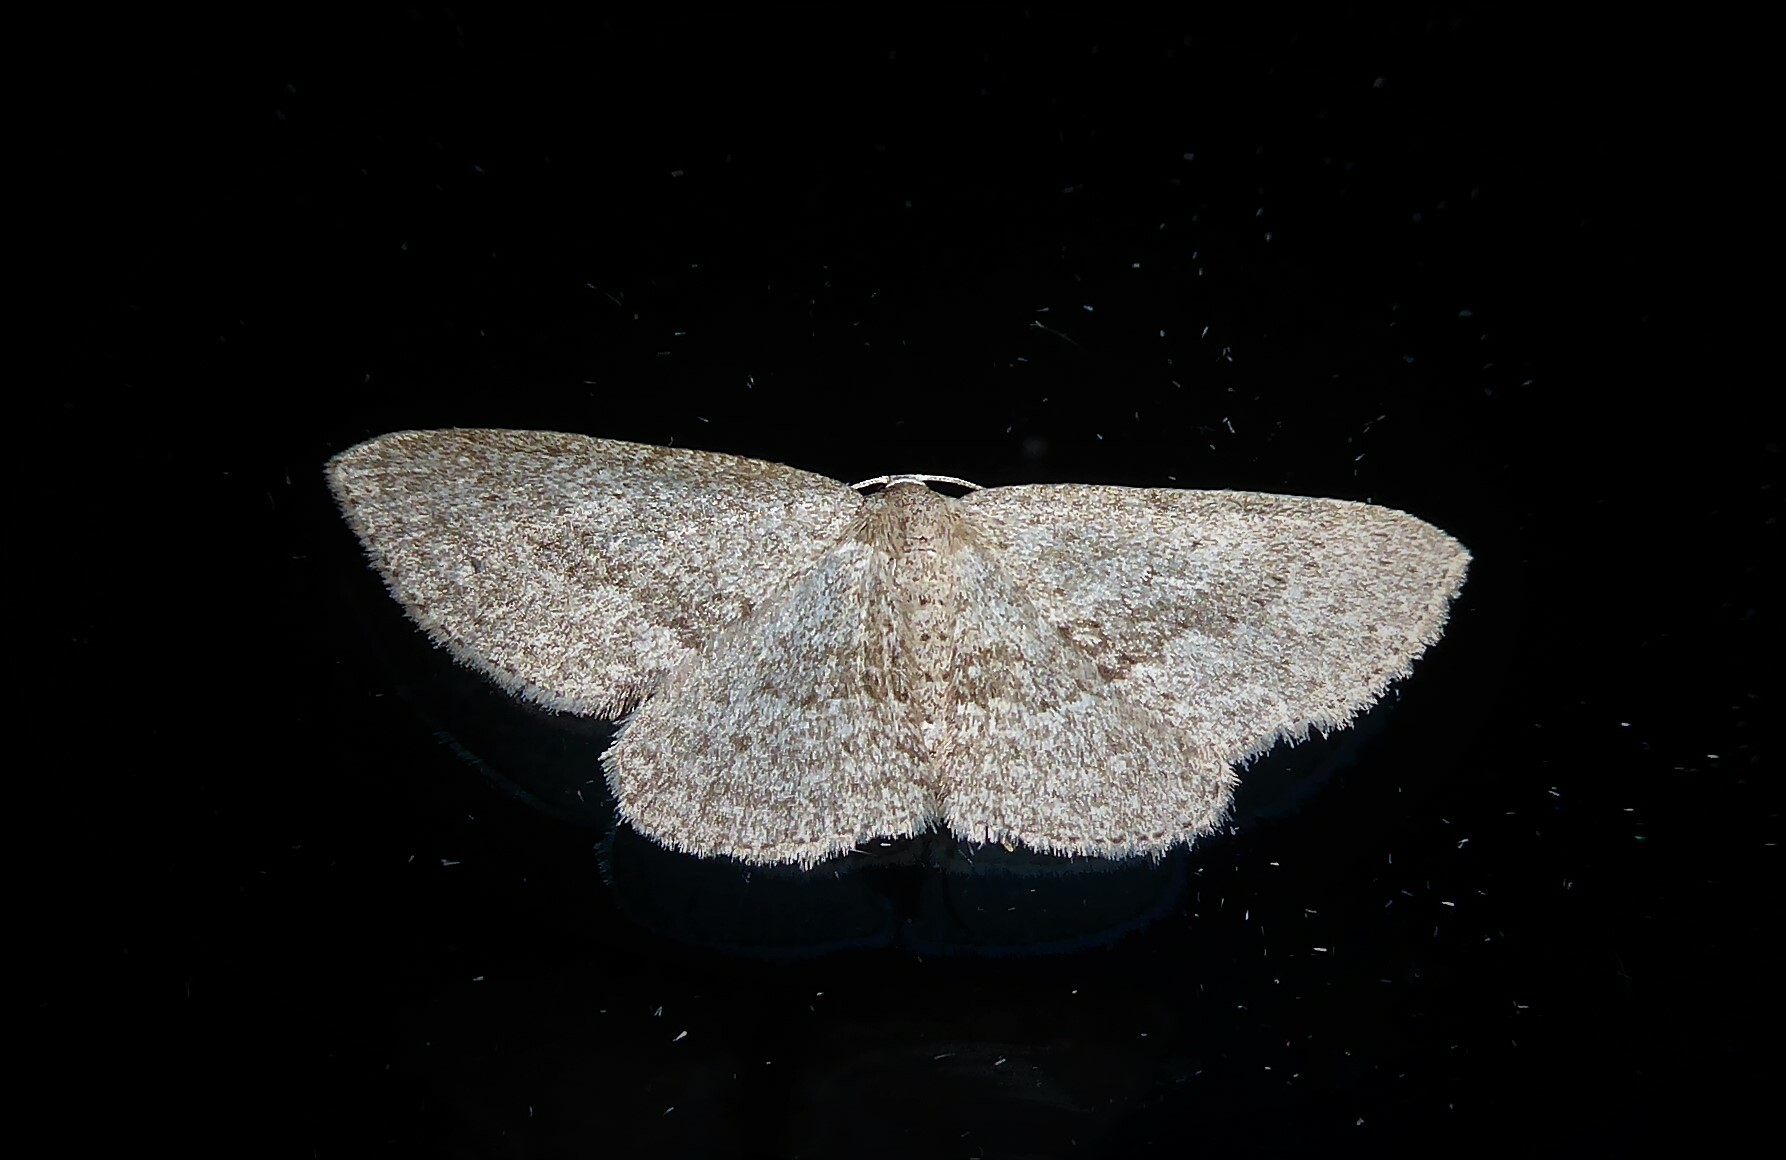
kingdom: Animalia
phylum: Arthropoda
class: Insecta
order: Lepidoptera
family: Geometridae
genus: Poecilasthena
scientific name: Poecilasthena schistaria
